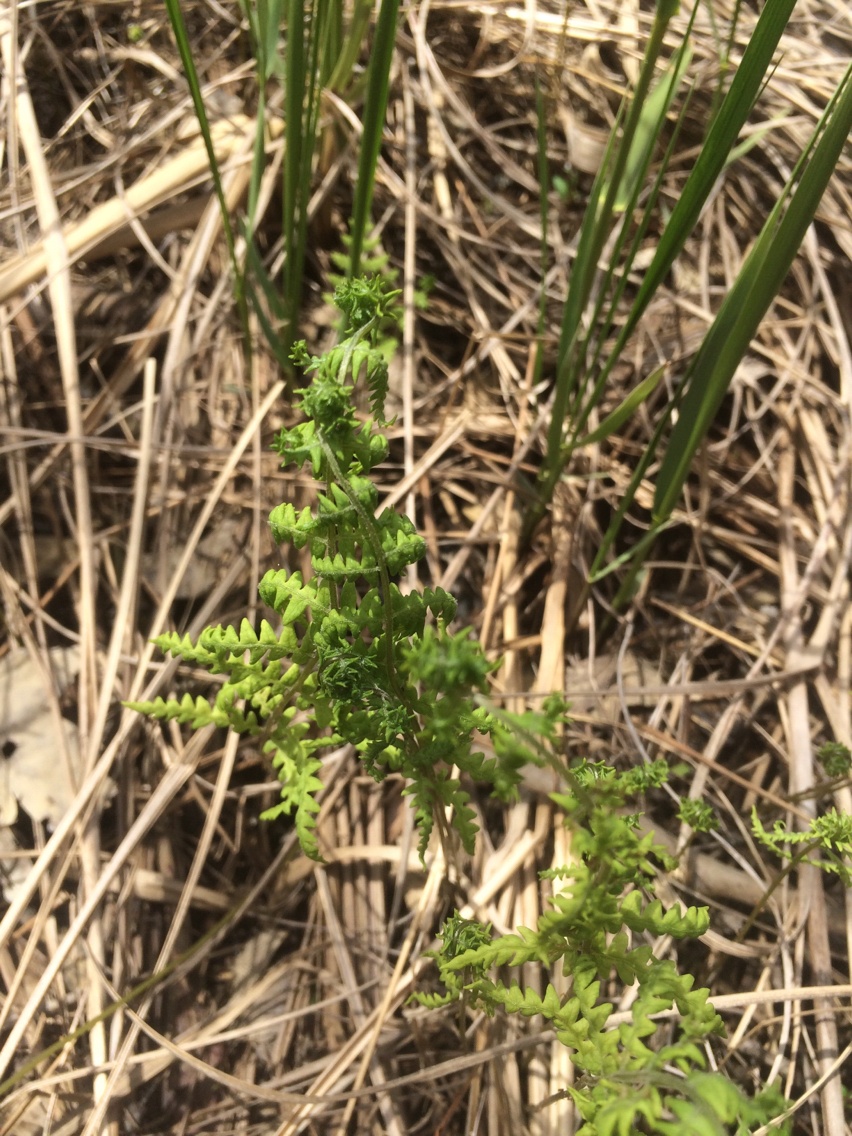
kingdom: Plantae
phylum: Tracheophyta
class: Polypodiopsida
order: Polypodiales
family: Thelypteridaceae
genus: Thelypteris
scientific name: Thelypteris palustris
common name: Marsh fern
